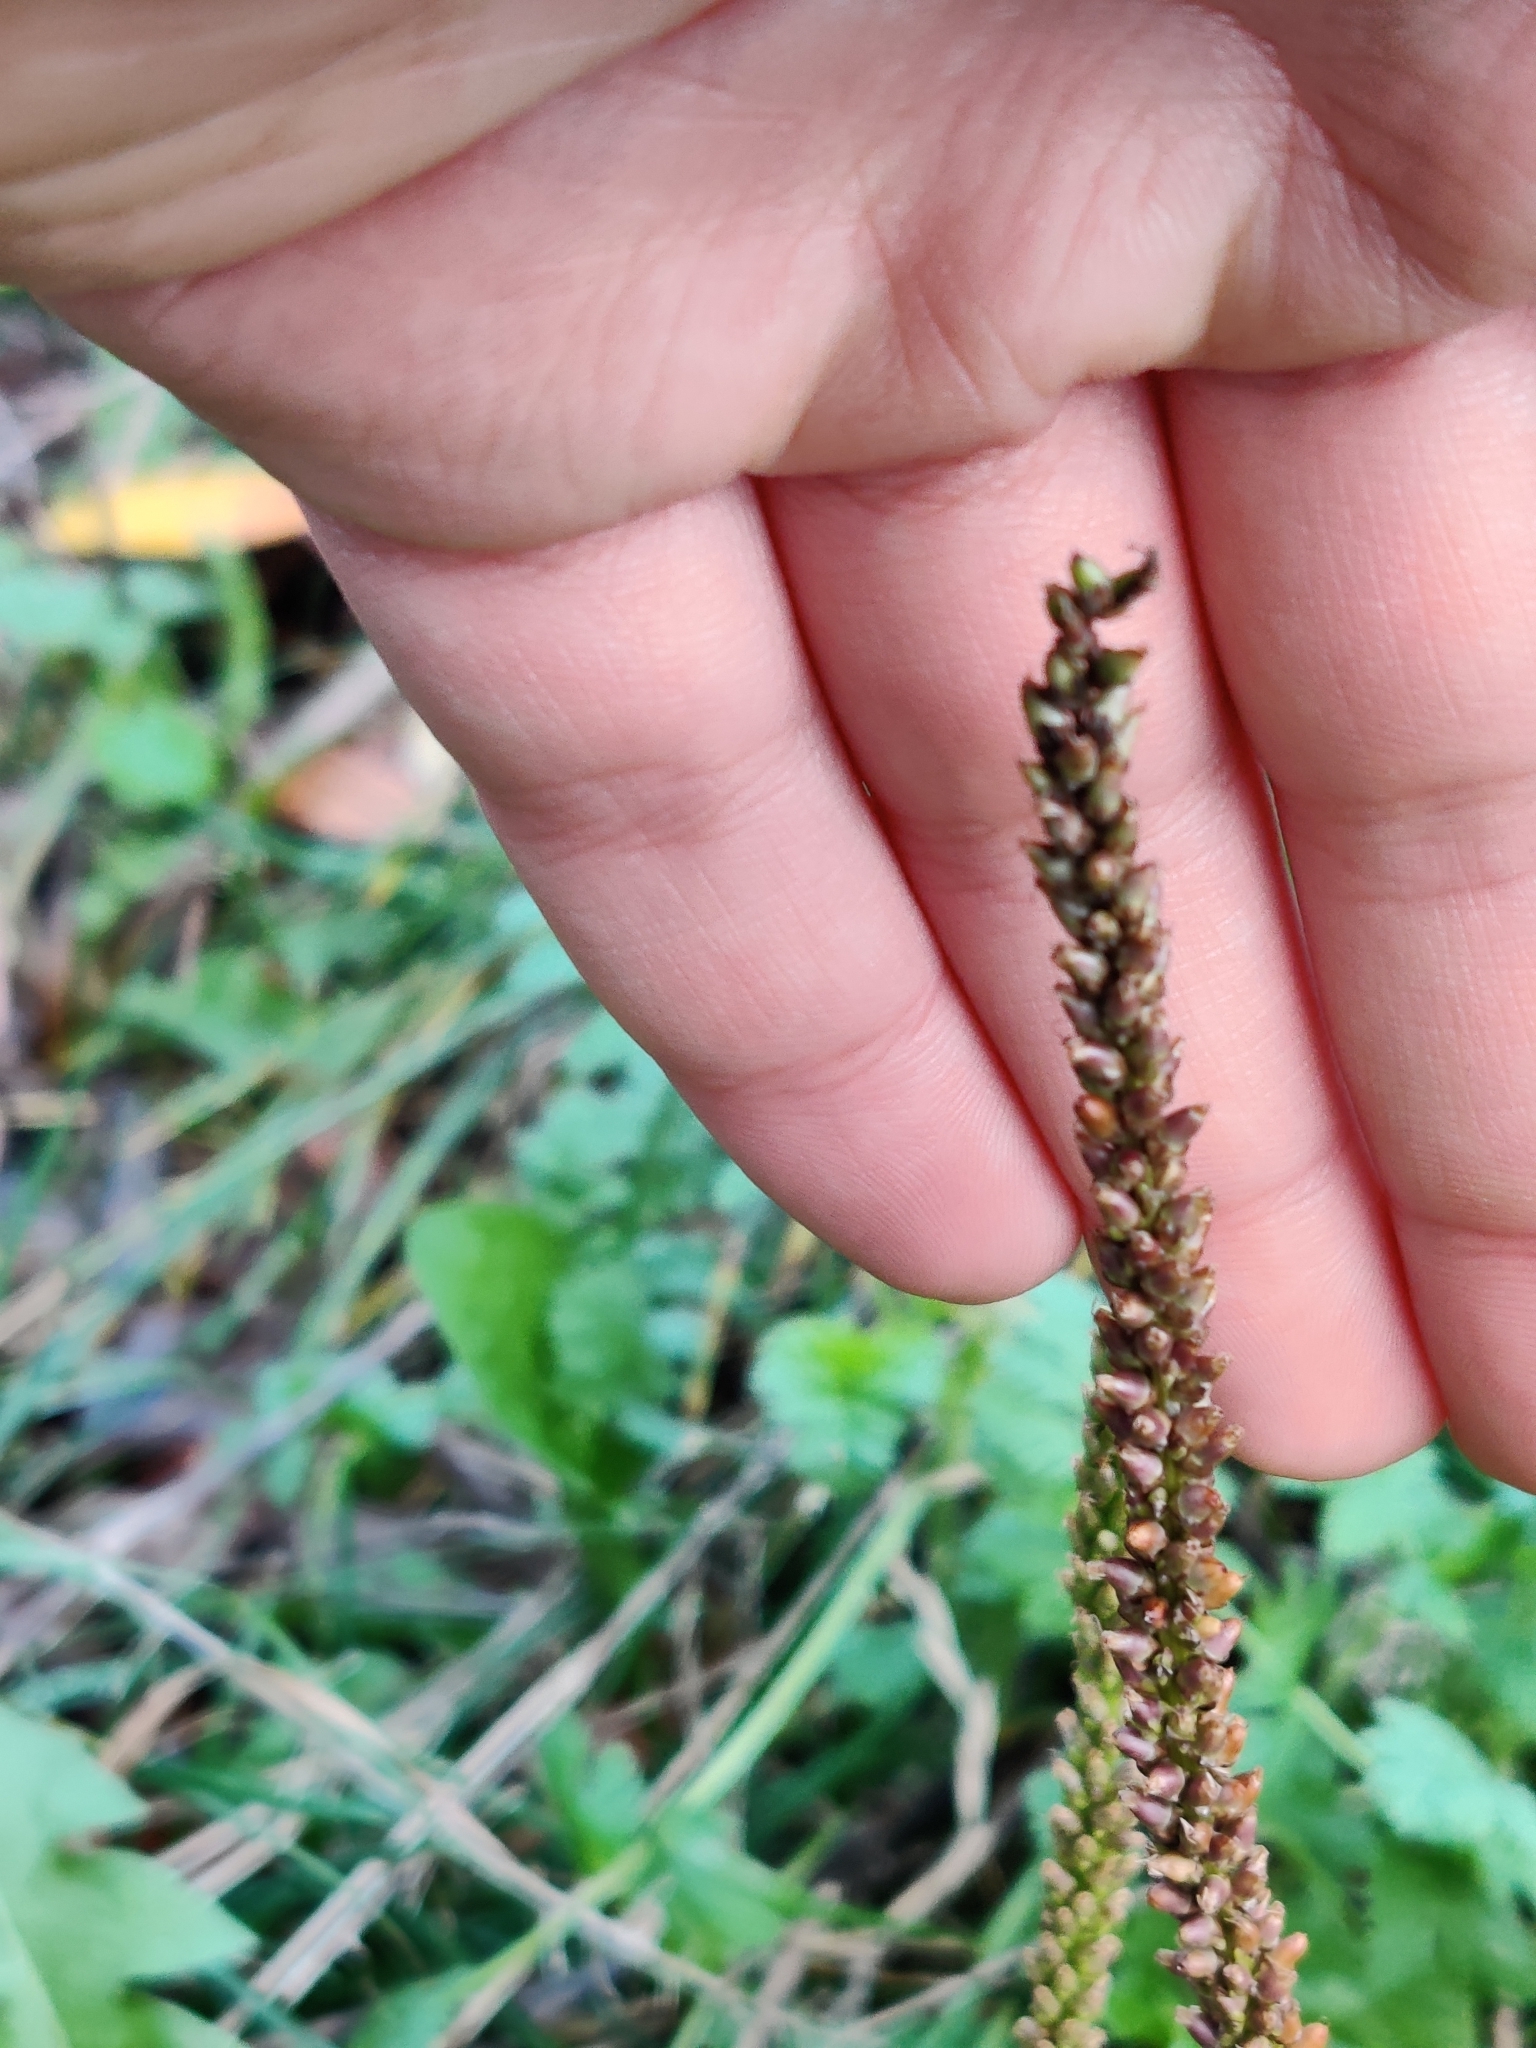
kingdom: Plantae
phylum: Tracheophyta
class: Magnoliopsida
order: Lamiales
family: Plantaginaceae
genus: Plantago
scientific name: Plantago major
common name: Common plantain
